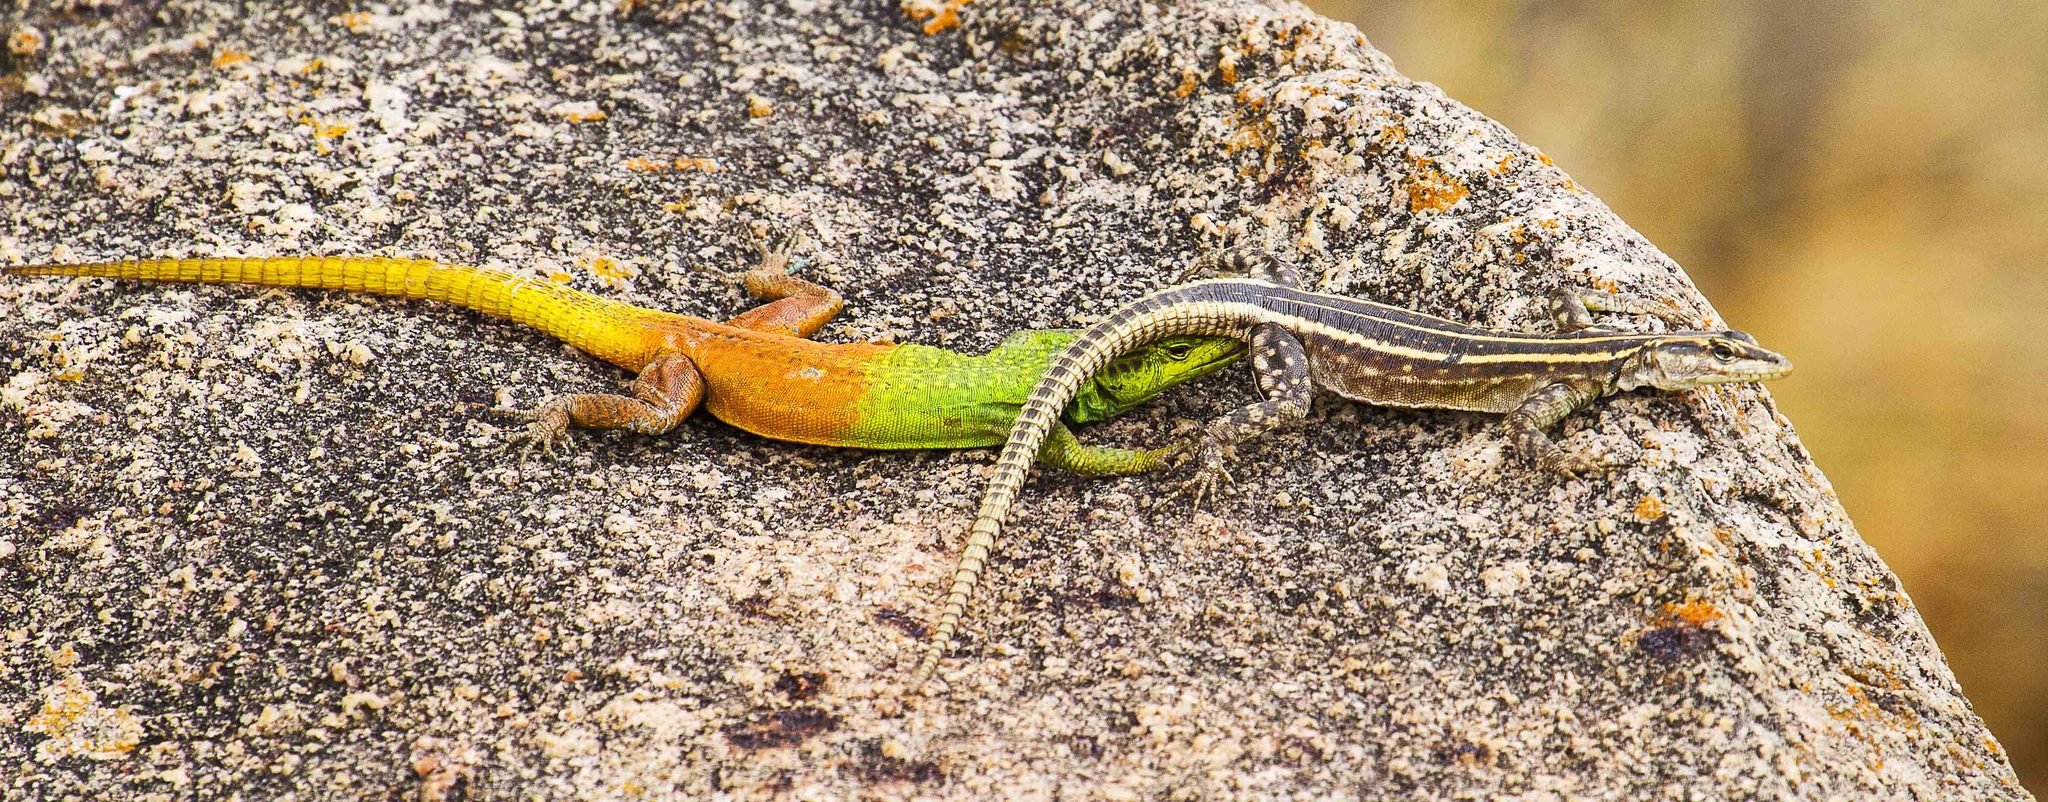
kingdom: Animalia
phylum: Chordata
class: Squamata
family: Cordylidae
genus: Platysaurus
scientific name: Platysaurus intermedius
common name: Common flat lizard
